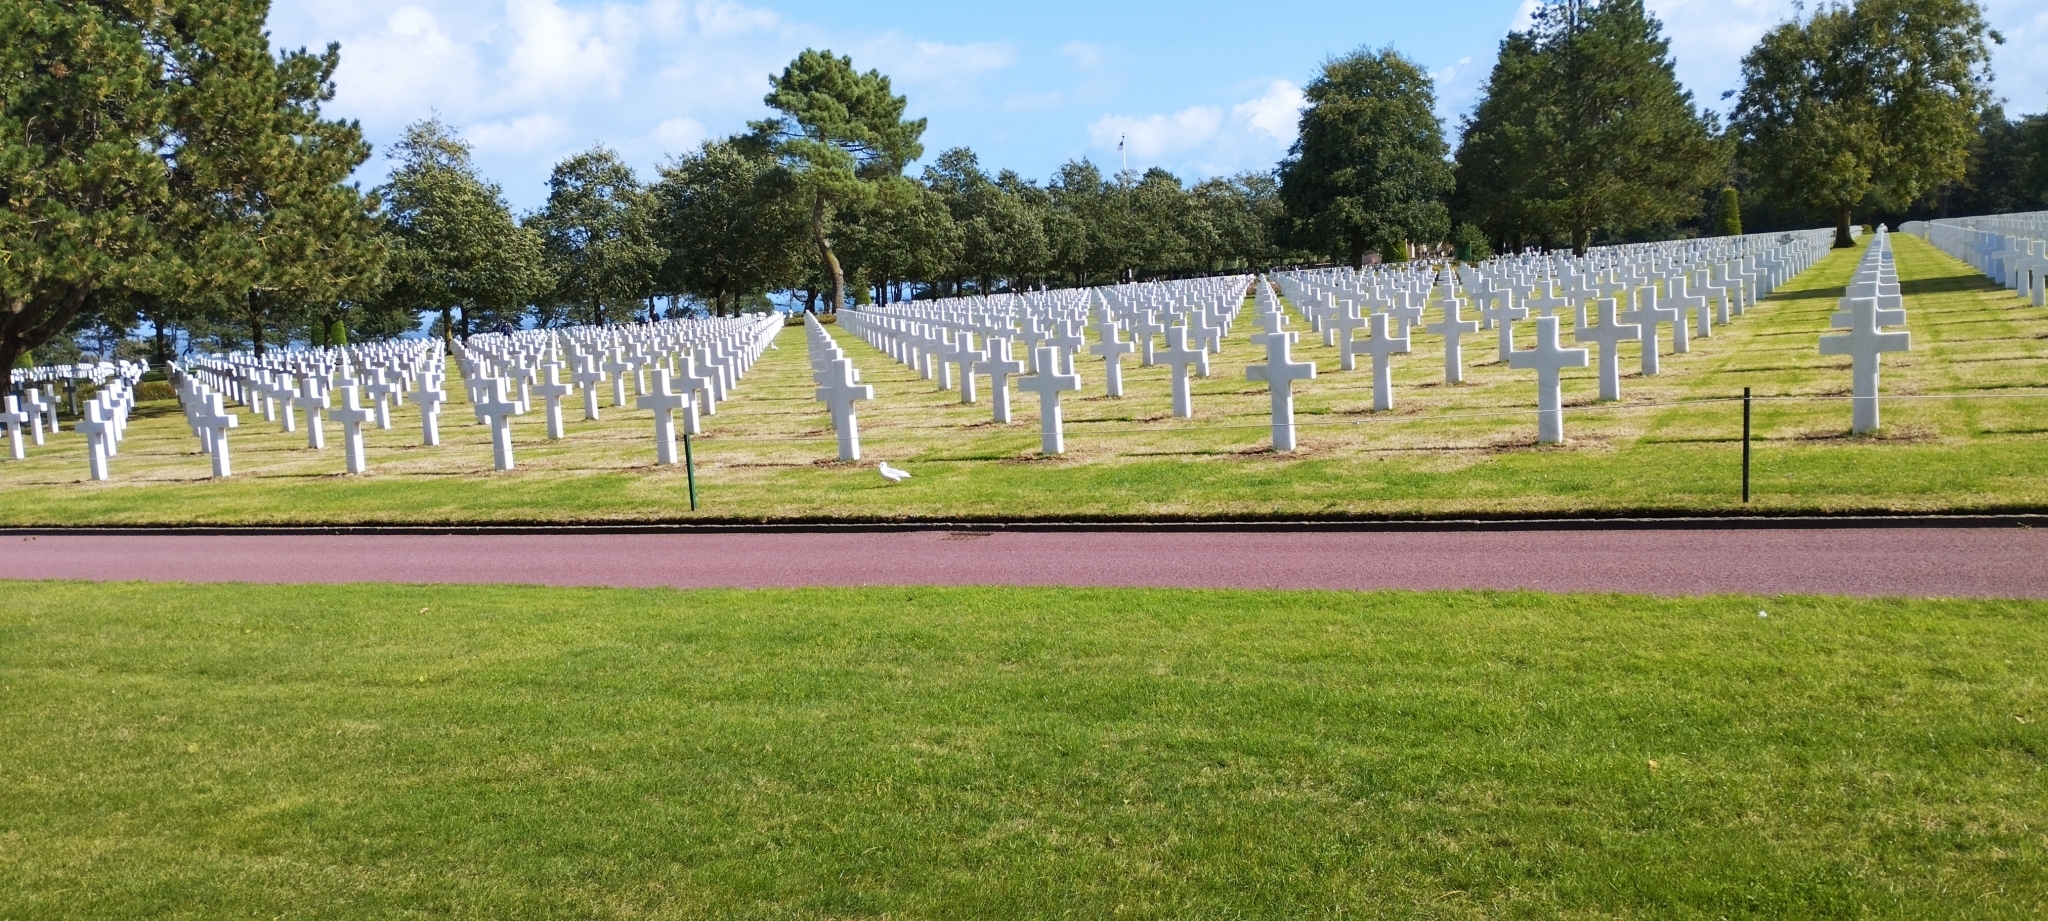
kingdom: Animalia
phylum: Chordata
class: Aves
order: Charadriiformes
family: Laridae
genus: Chroicocephalus
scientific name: Chroicocephalus ridibundus
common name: Black-headed gull
